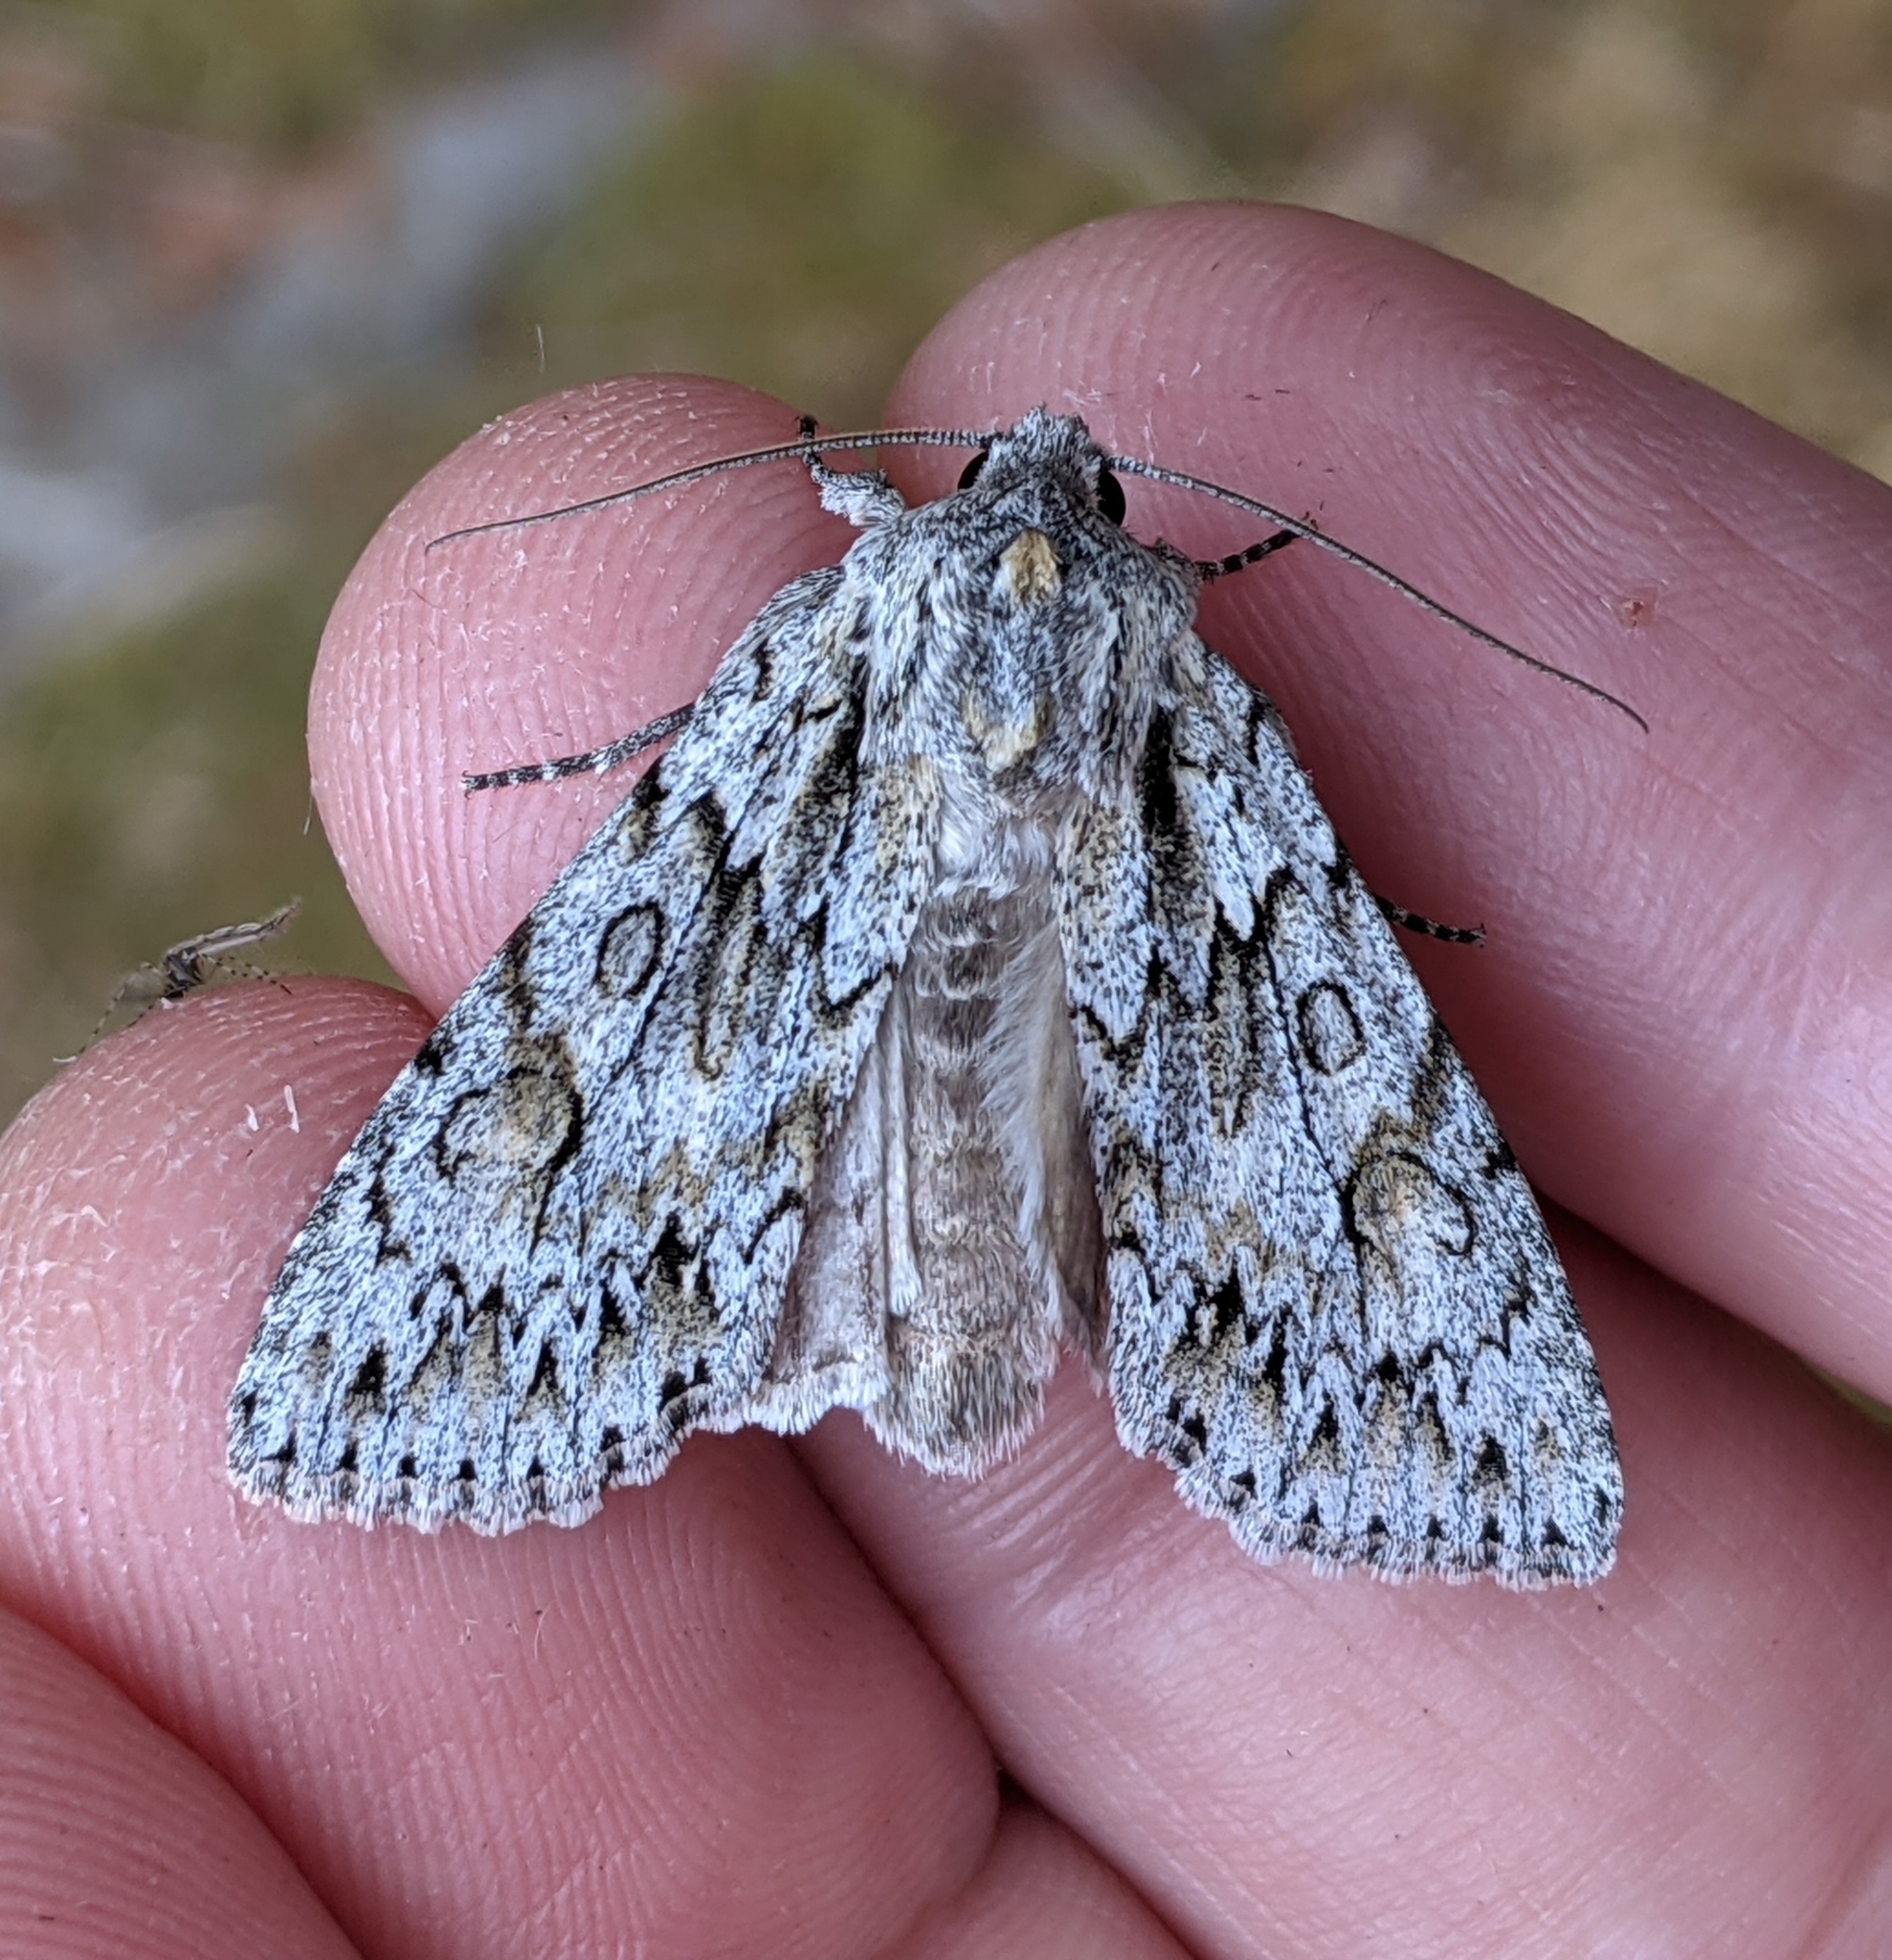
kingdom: Animalia
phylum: Arthropoda
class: Insecta
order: Lepidoptera
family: Noctuidae
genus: Andropolia
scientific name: Andropolia aedon
